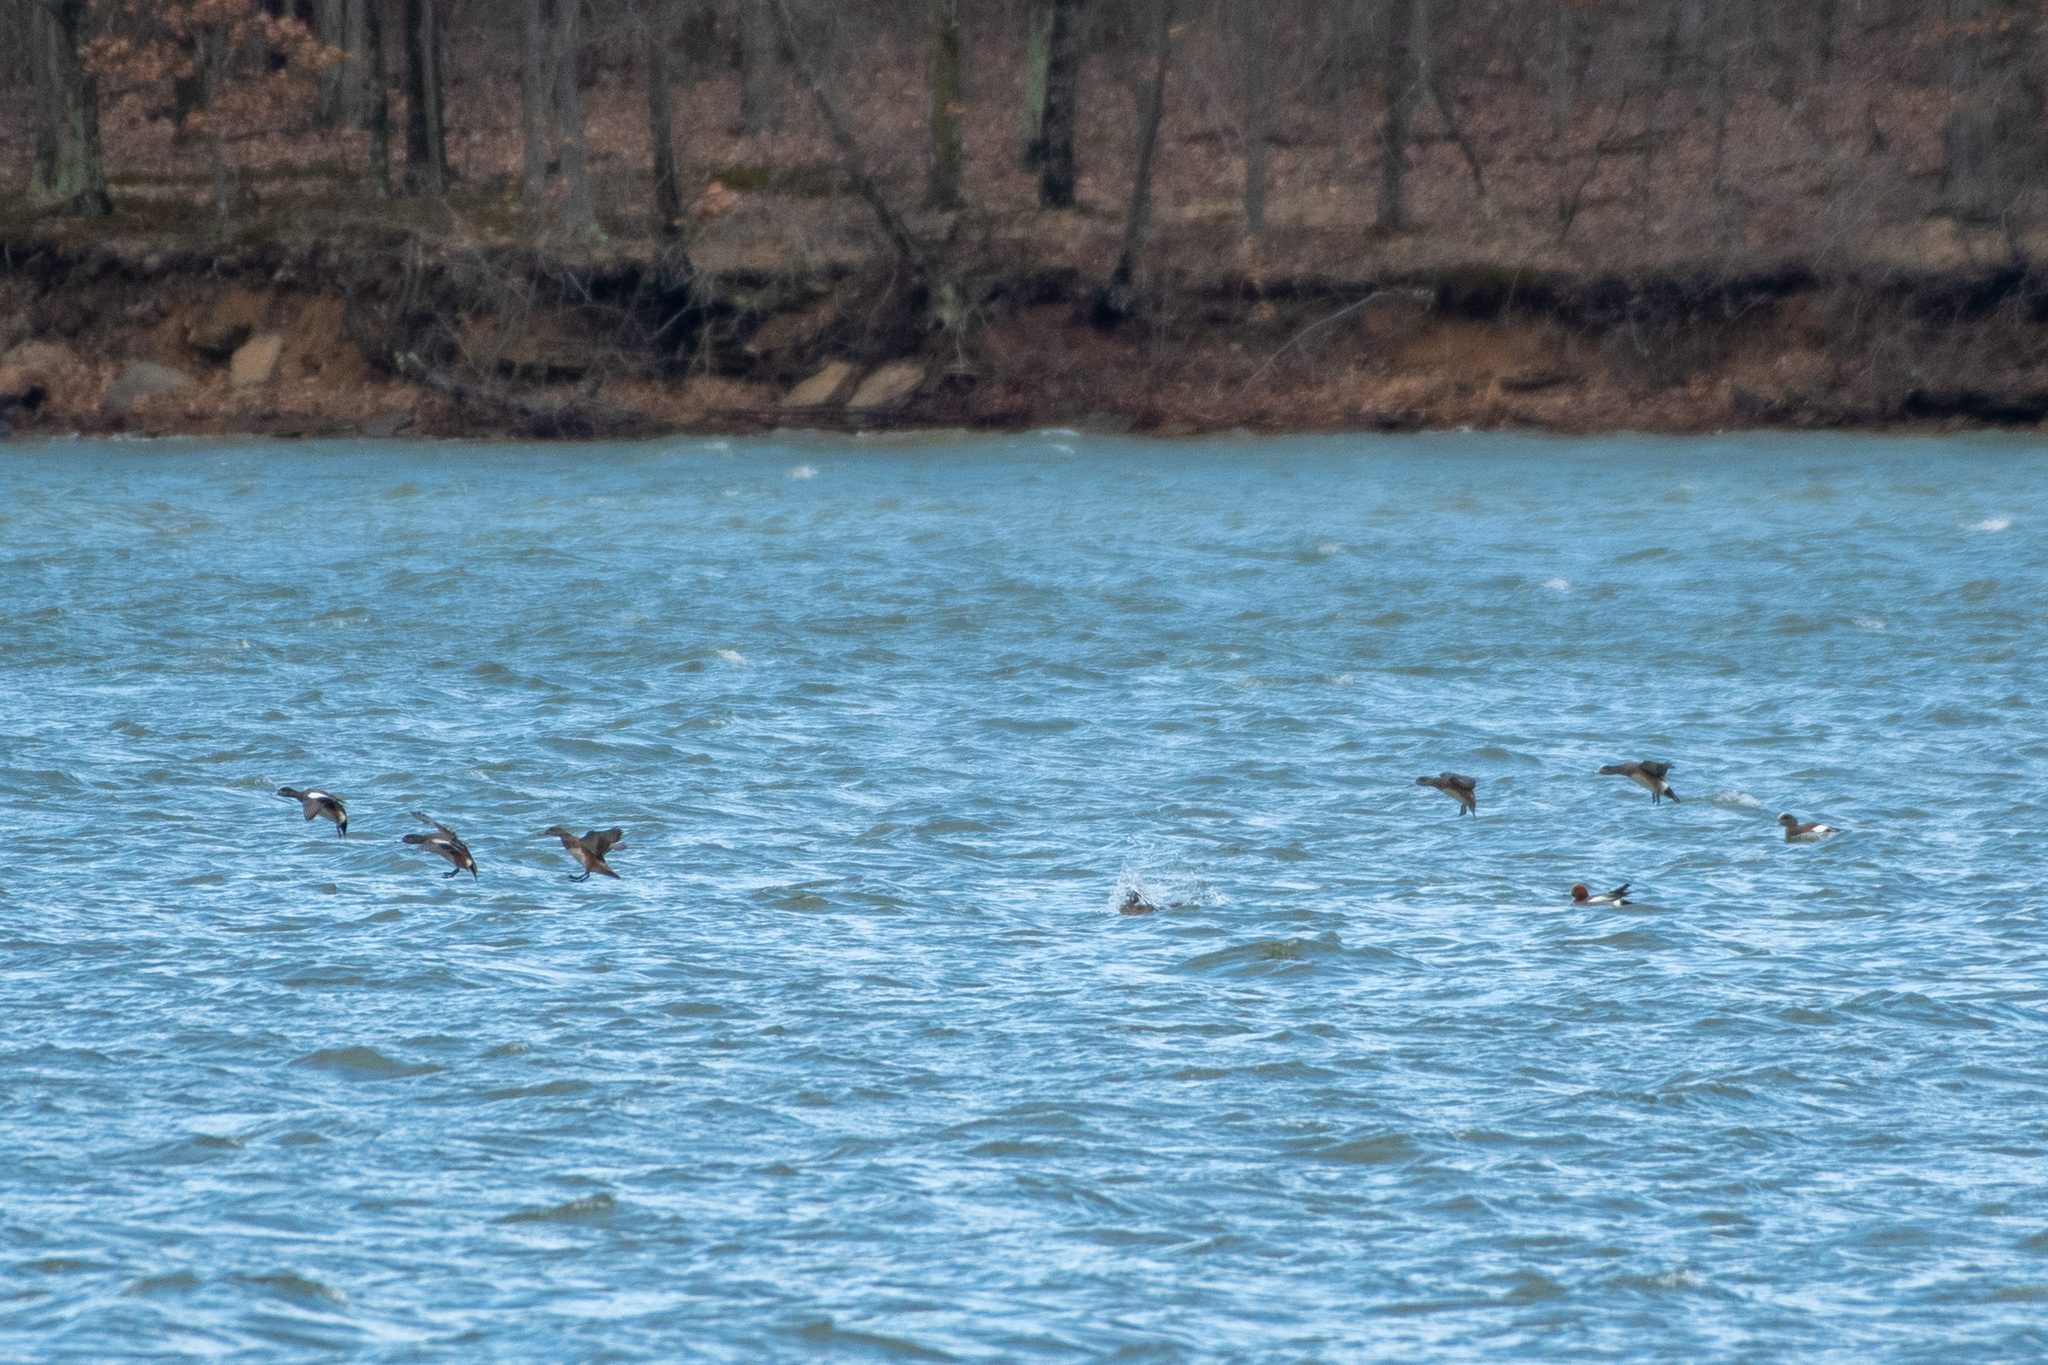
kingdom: Animalia
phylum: Chordata
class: Aves
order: Anseriformes
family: Anatidae
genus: Mareca
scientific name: Mareca americana
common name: American wigeon
